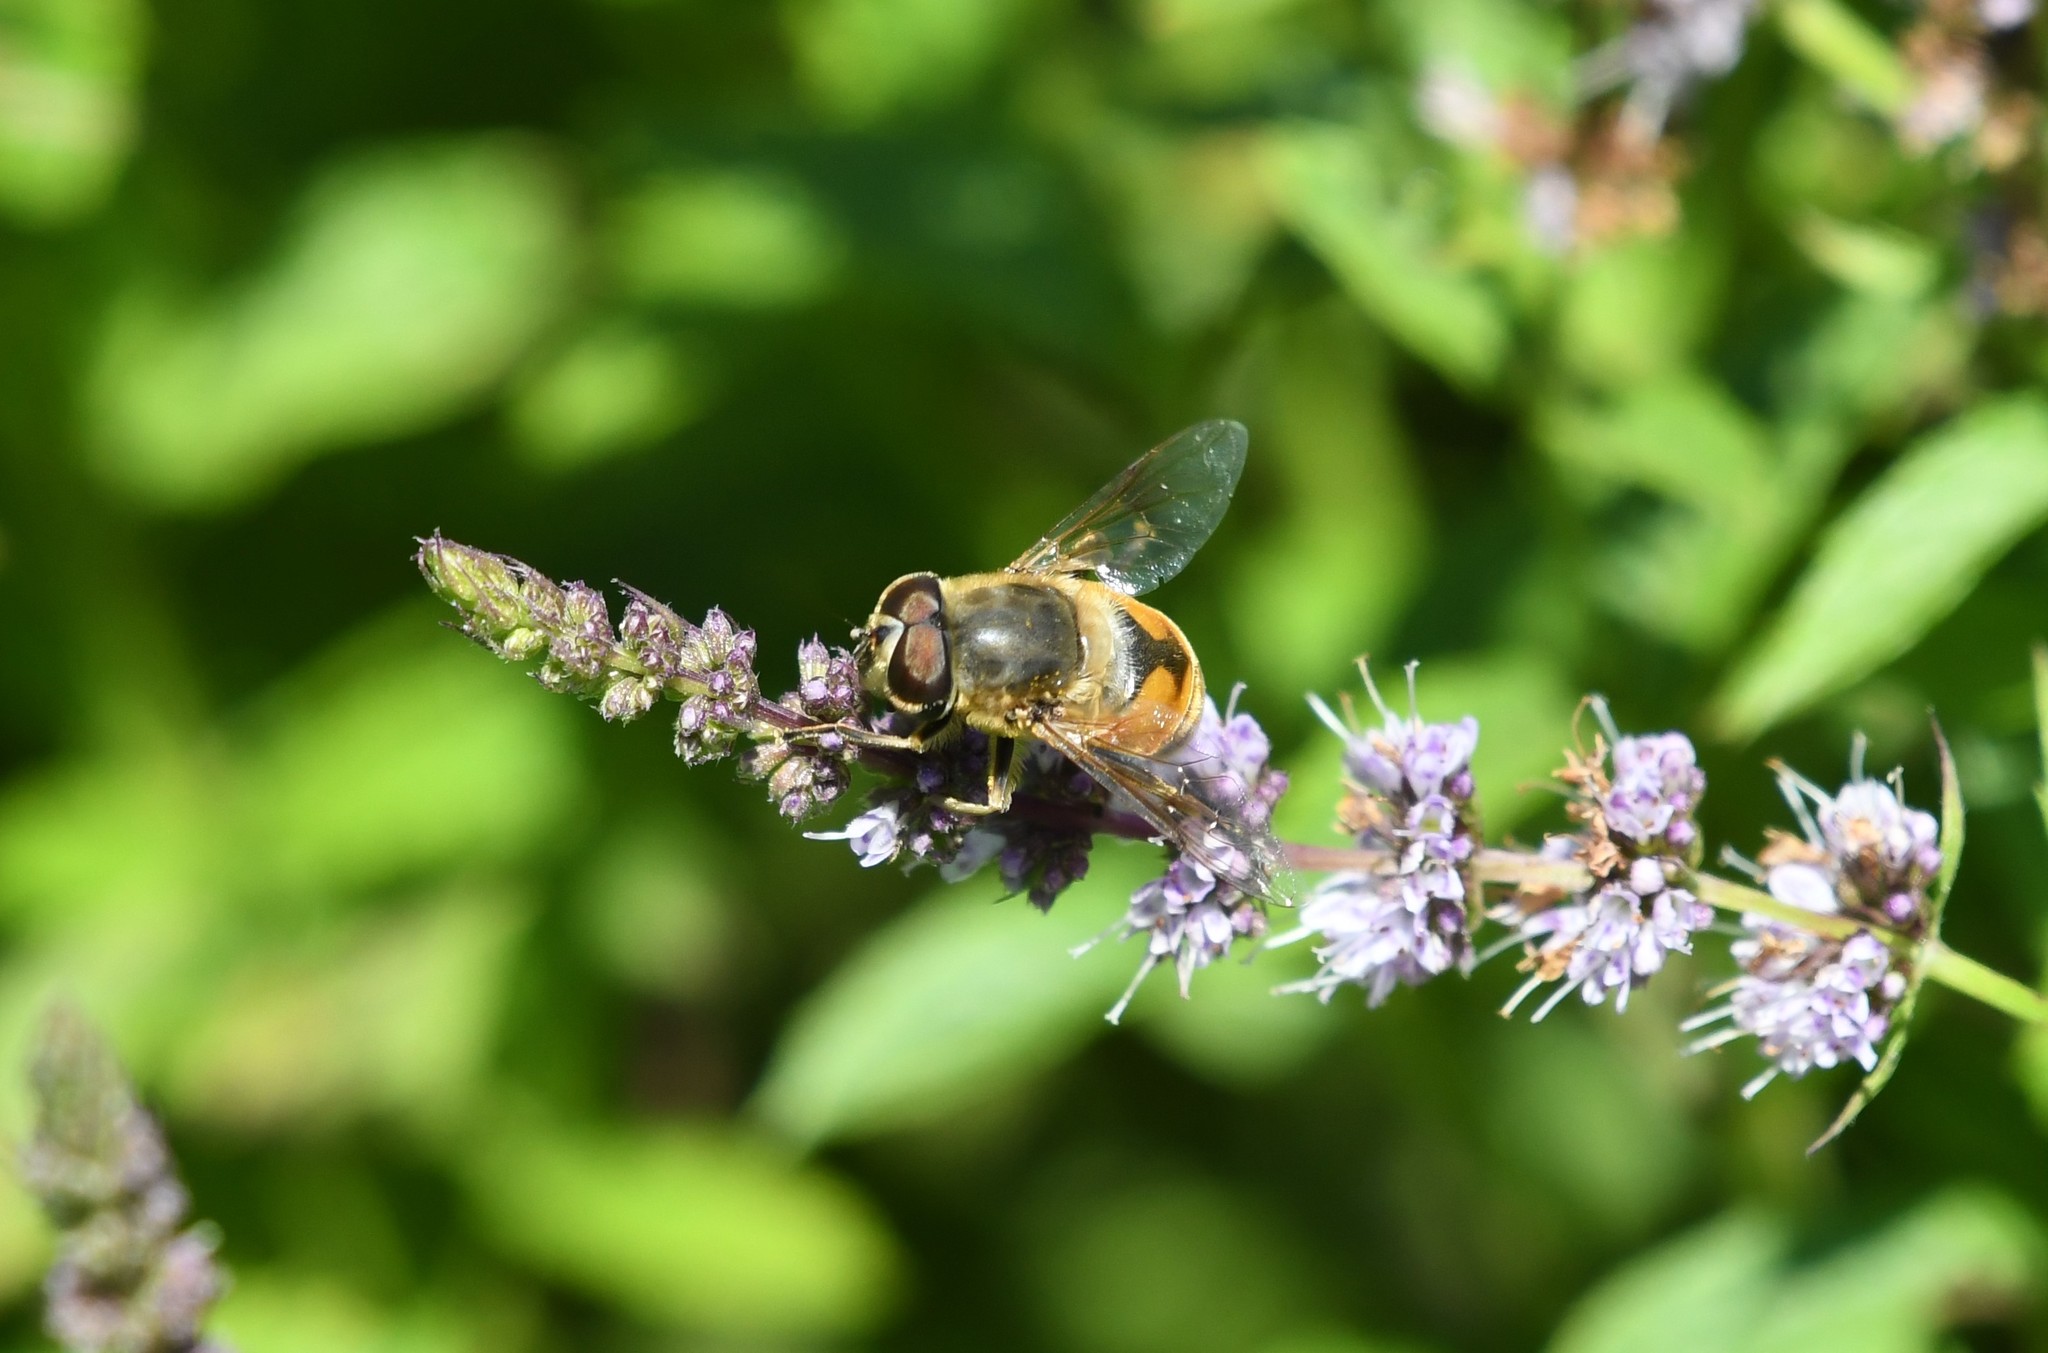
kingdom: Animalia
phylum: Arthropoda
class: Insecta
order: Diptera
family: Syrphidae
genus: Eristalis
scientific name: Eristalis tenax
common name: Drone fly
